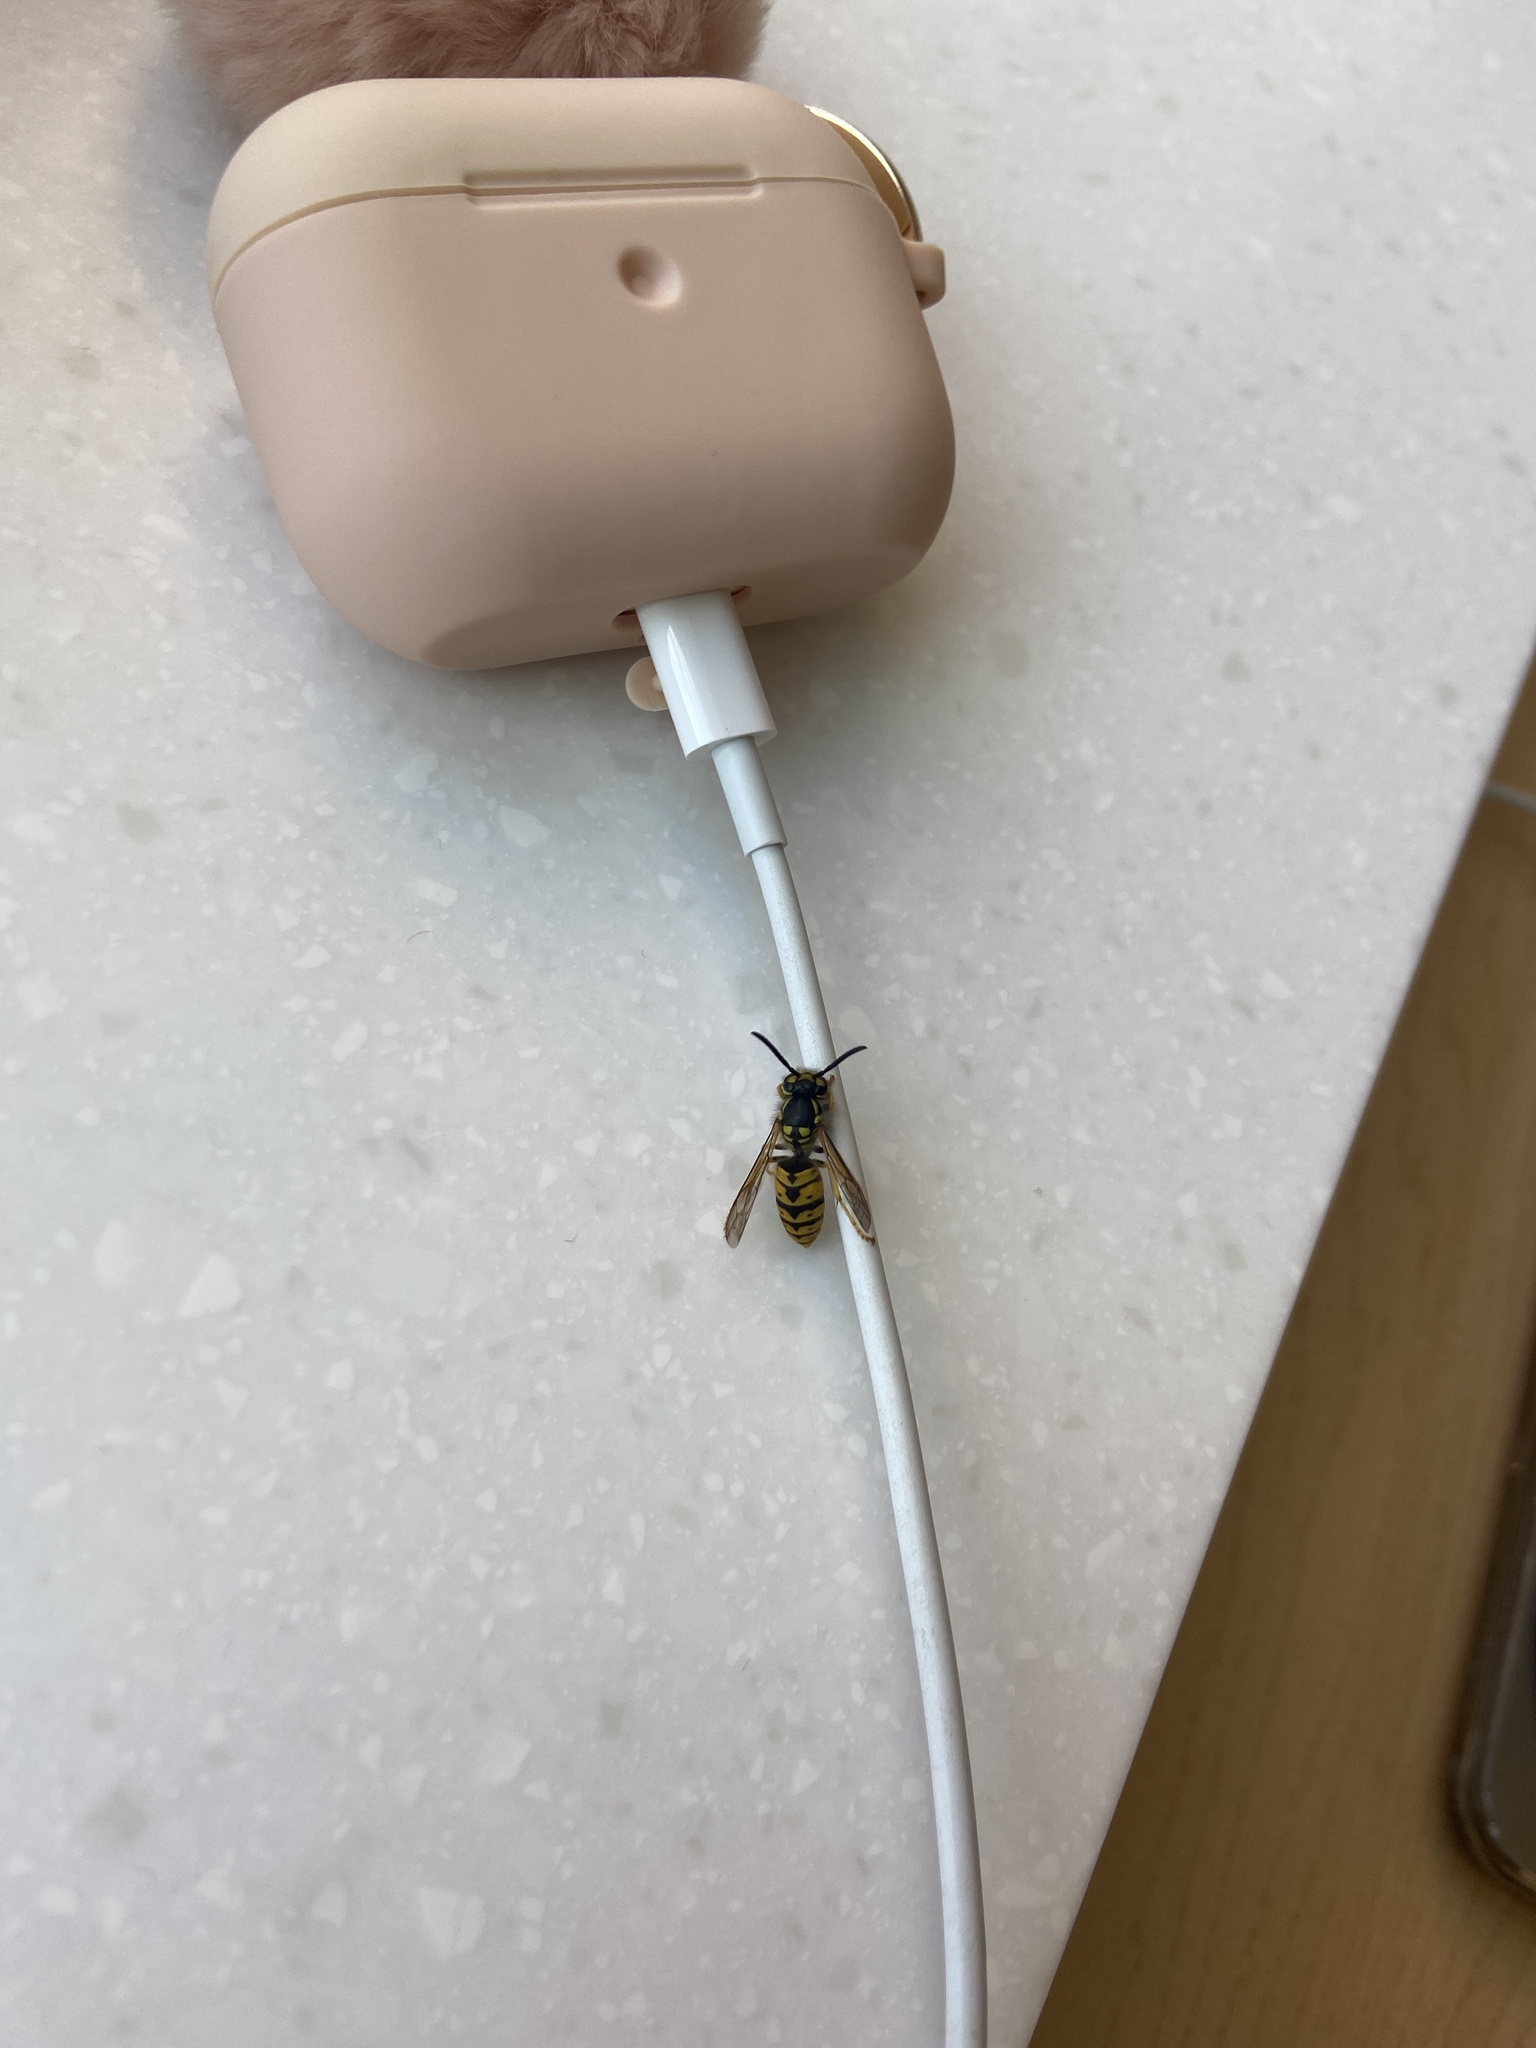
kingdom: Animalia
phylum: Arthropoda
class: Insecta
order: Hymenoptera
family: Vespidae
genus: Vespula
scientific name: Vespula germanica
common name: German wasp
